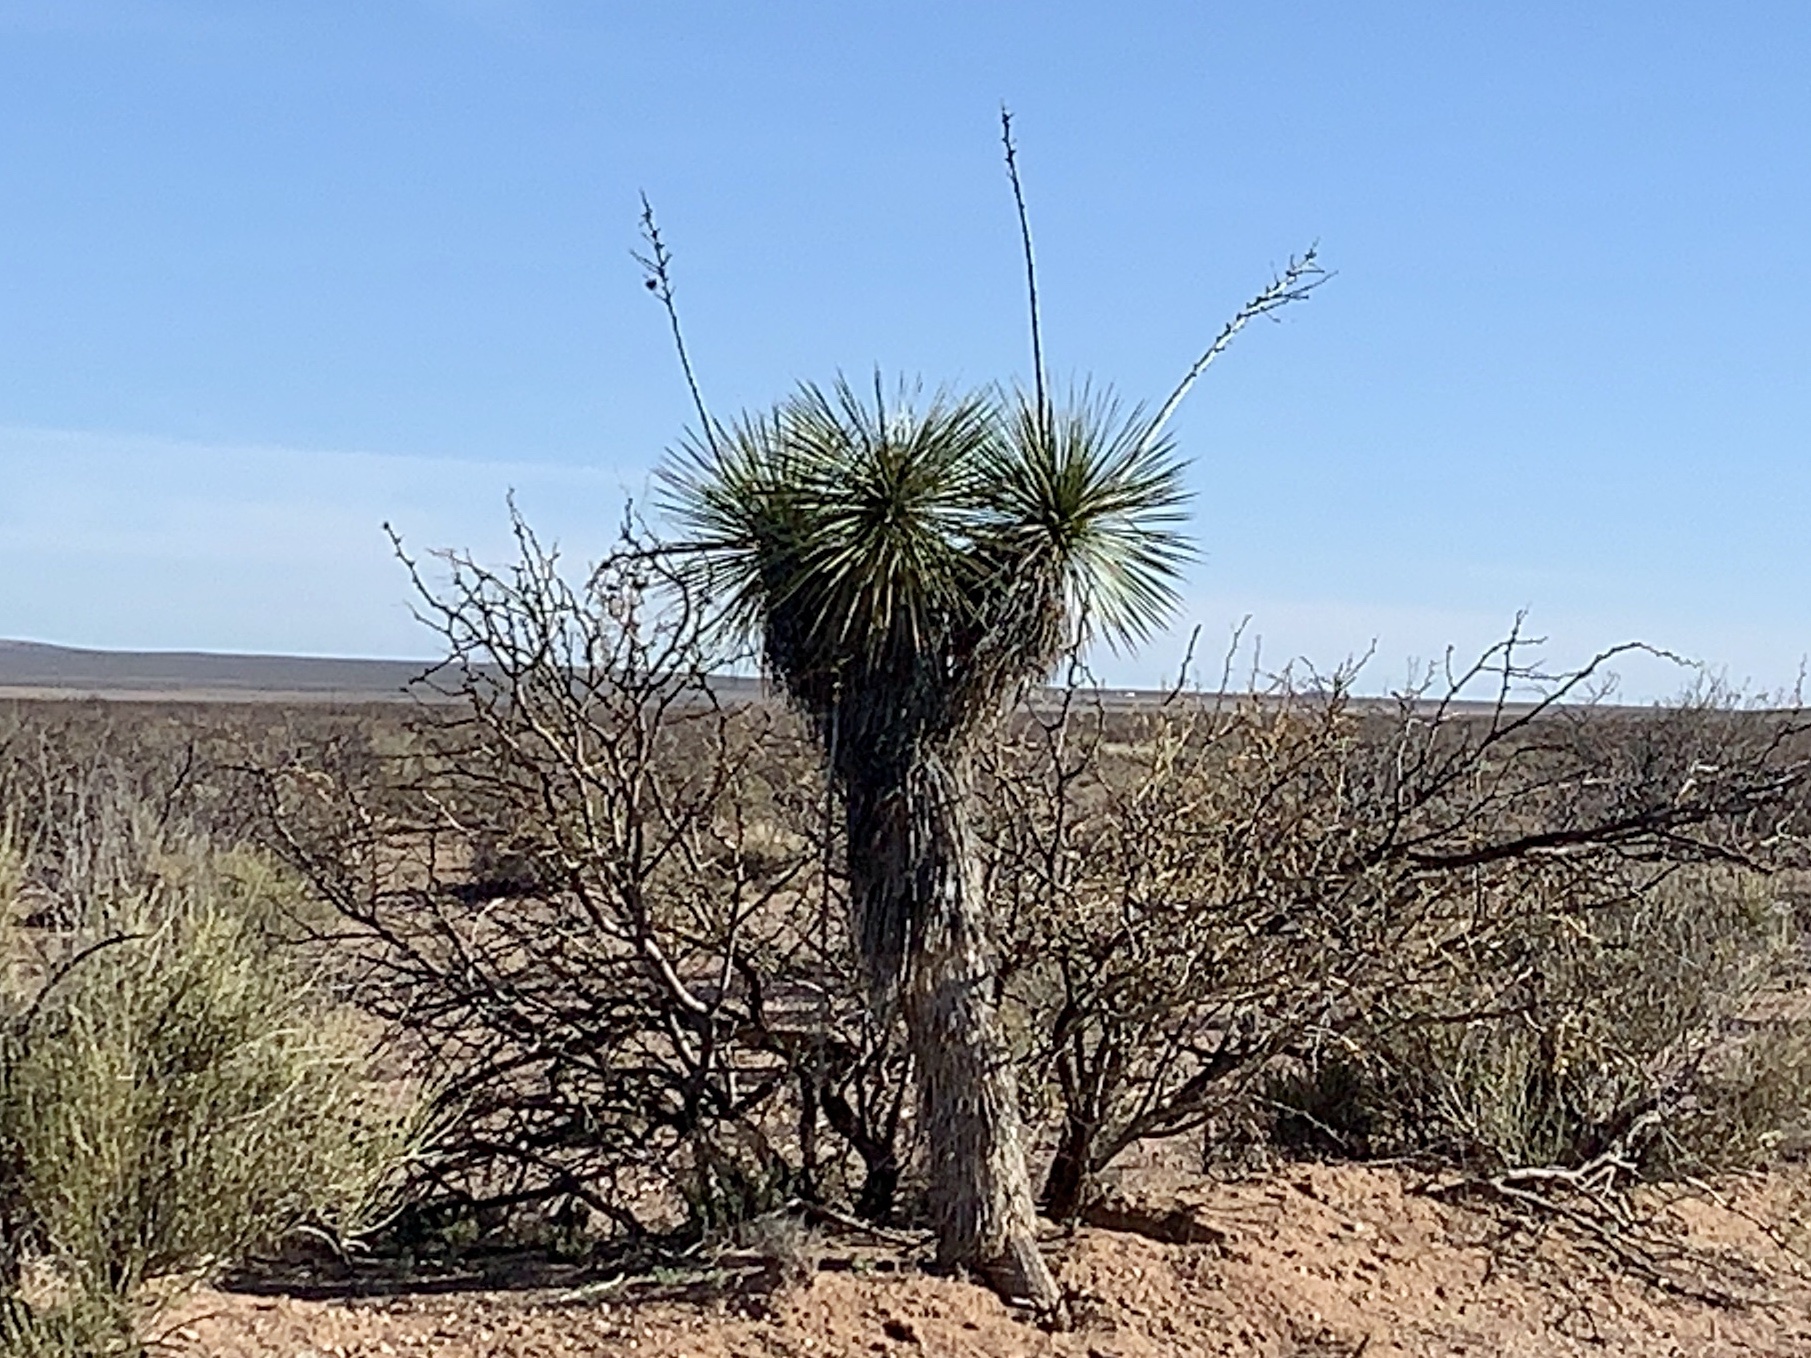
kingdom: Plantae
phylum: Tracheophyta
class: Liliopsida
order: Asparagales
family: Asparagaceae
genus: Yucca
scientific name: Yucca elata
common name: Palmella
